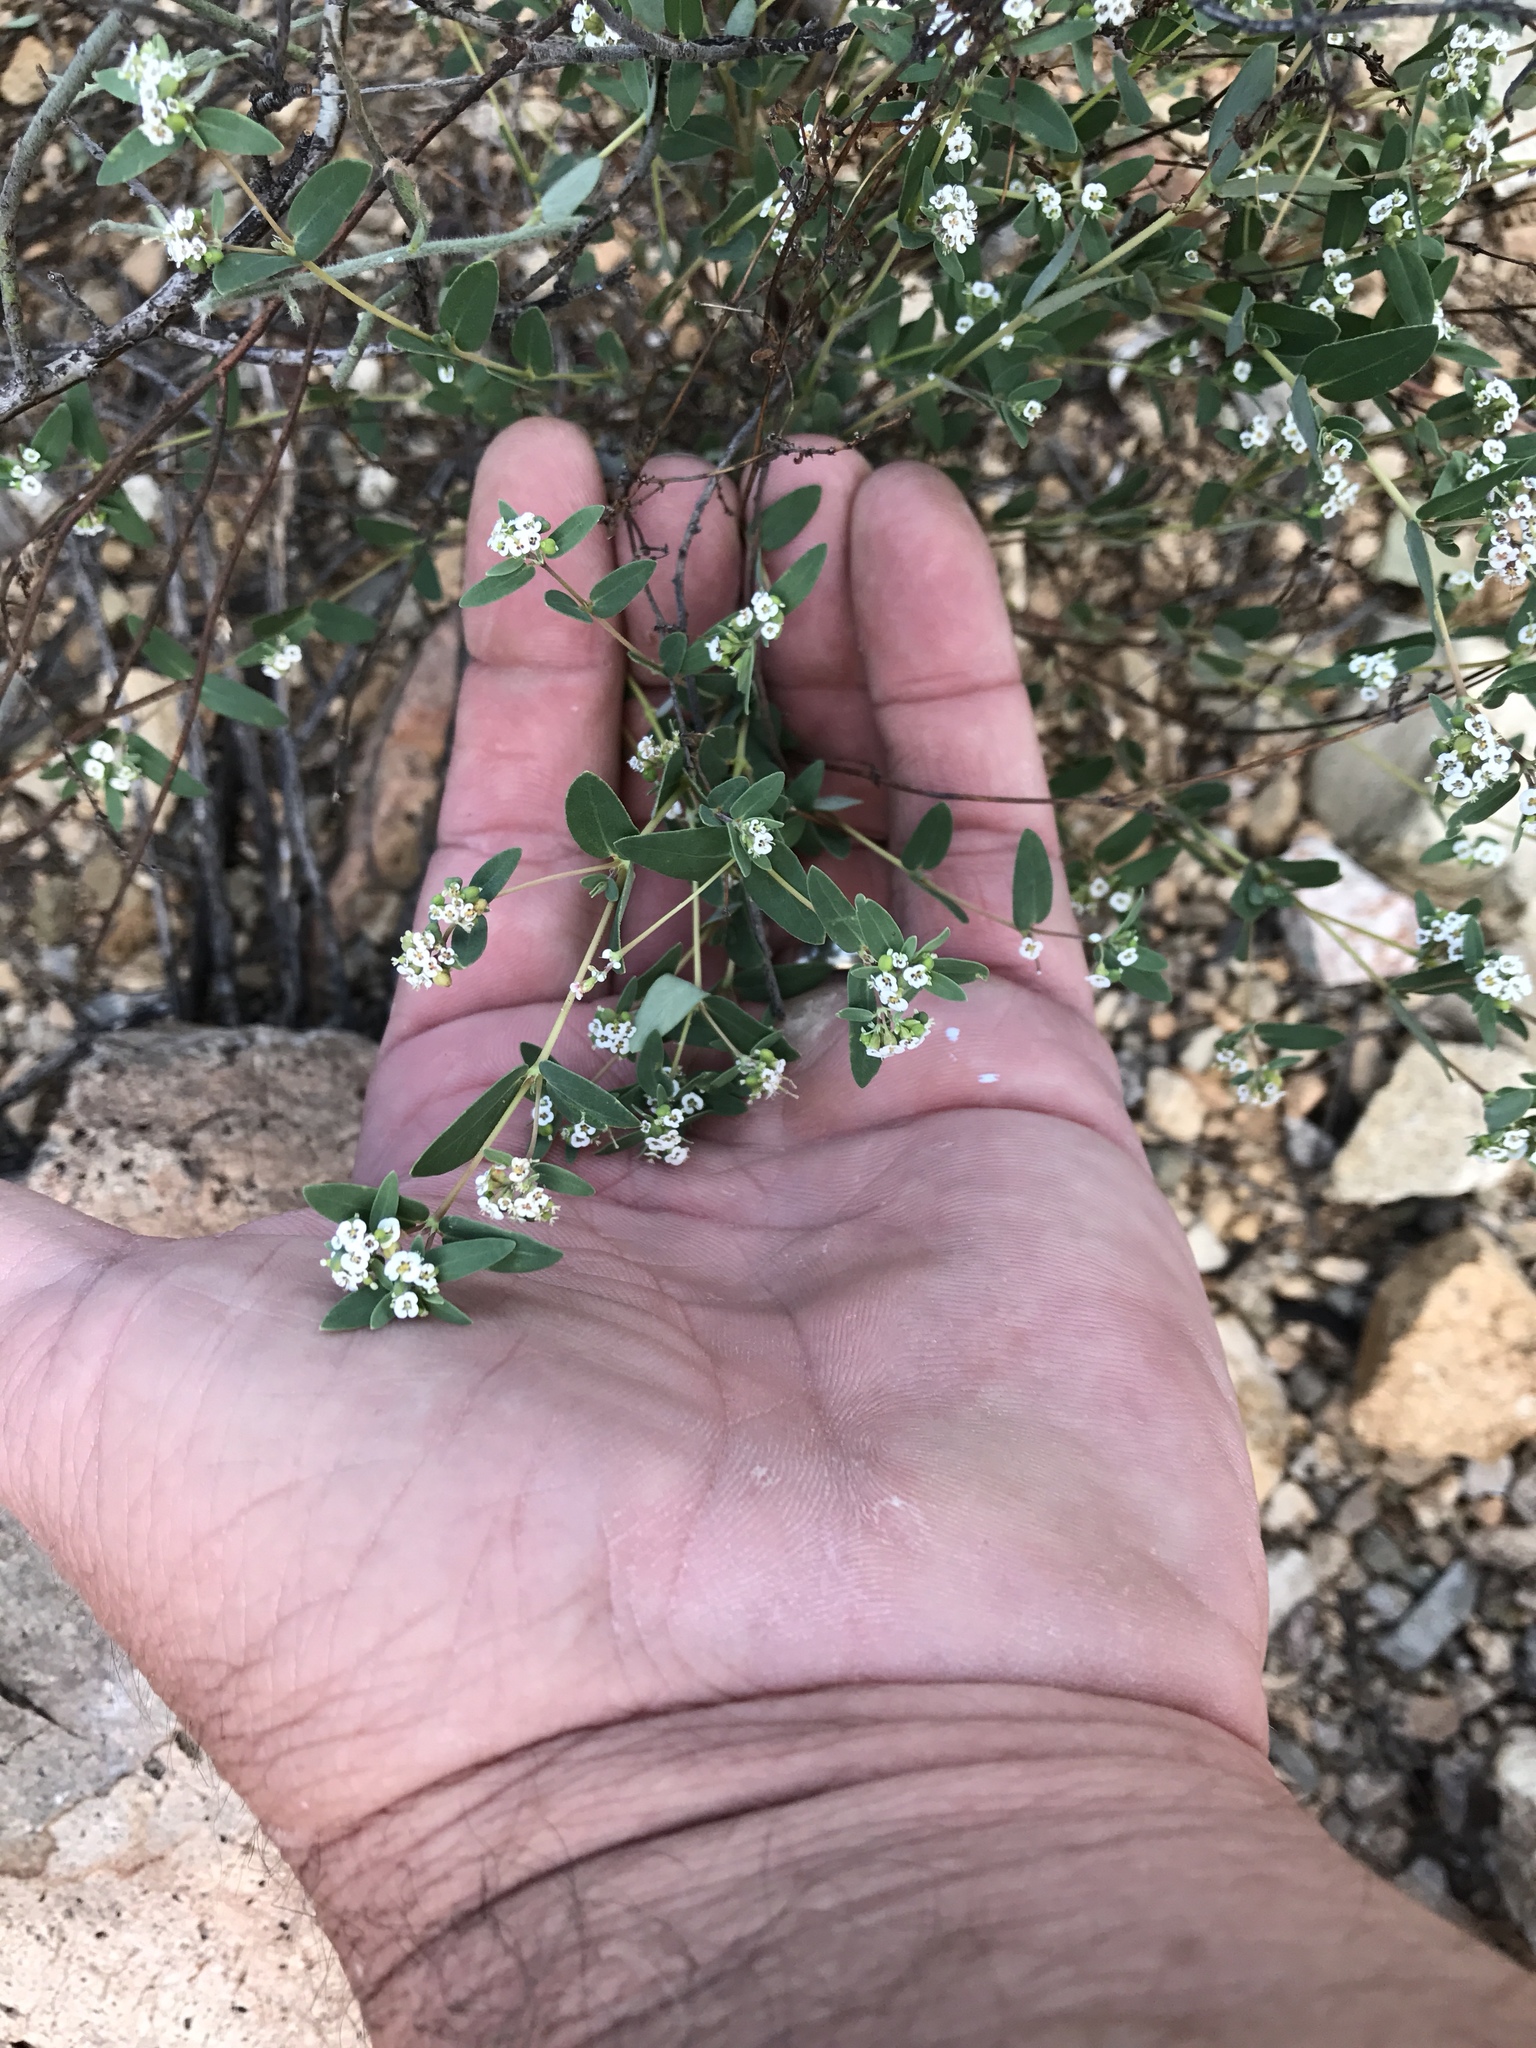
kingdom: Plantae
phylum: Tracheophyta
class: Magnoliopsida
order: Malpighiales
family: Euphorbiaceae
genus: Euphorbia
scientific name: Euphorbia capitellata
